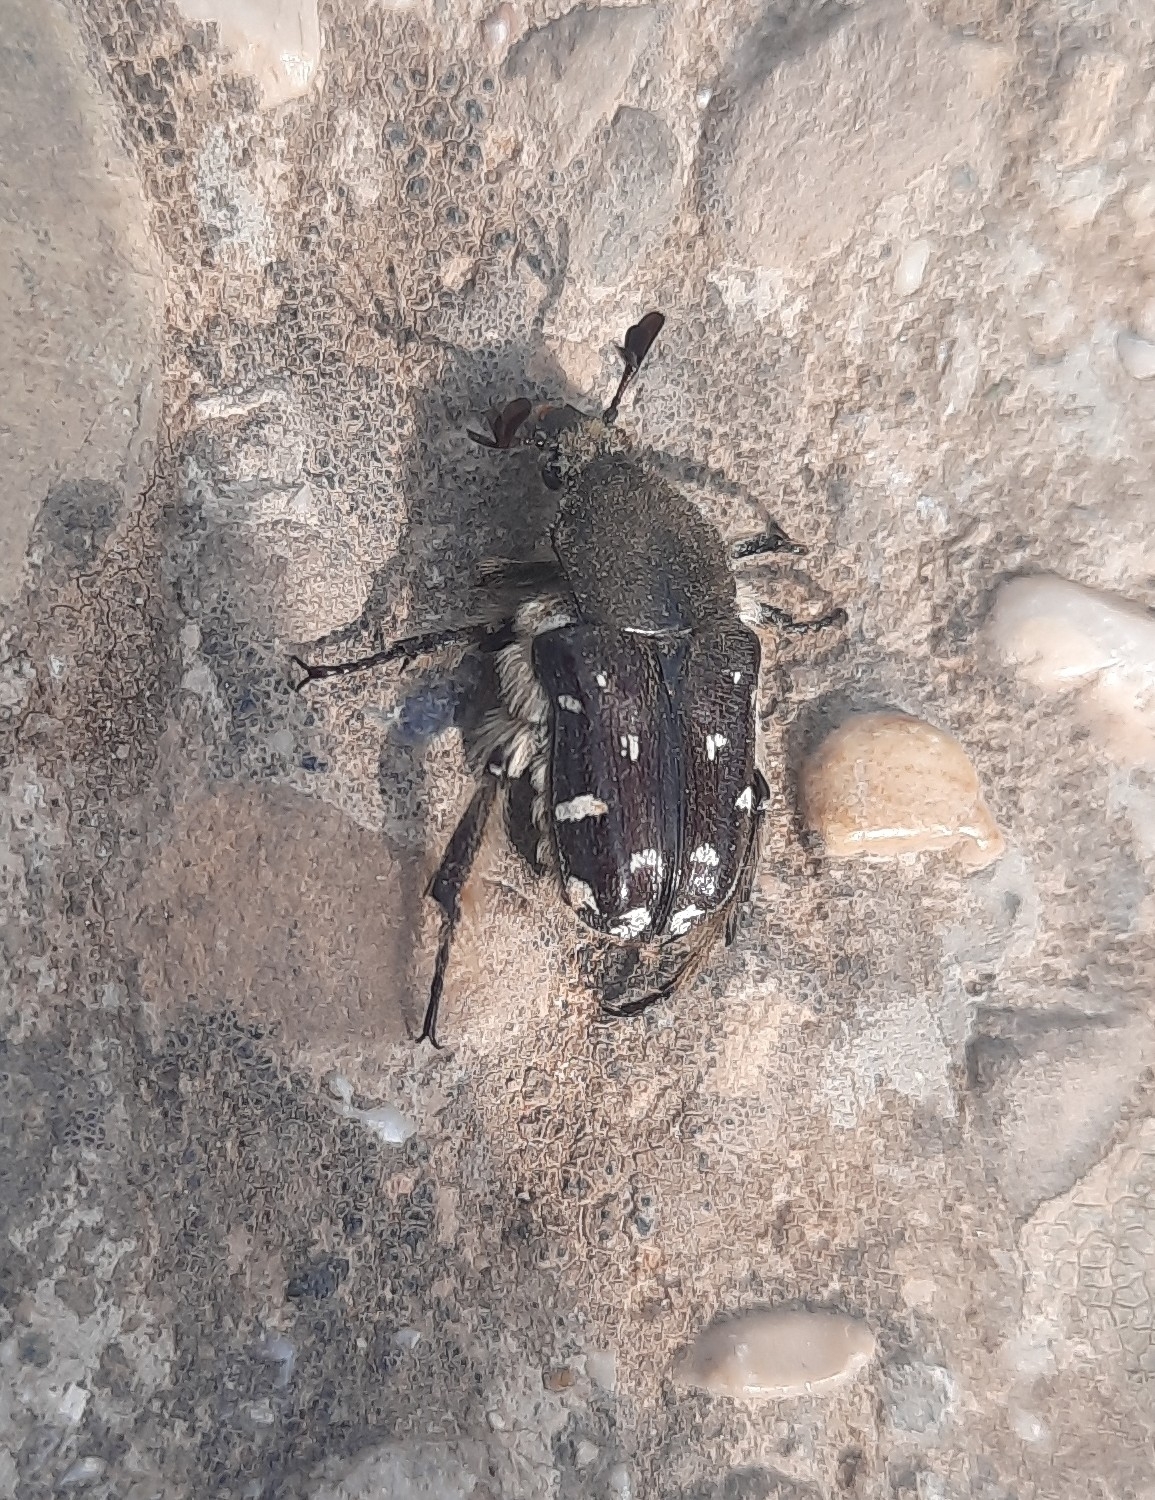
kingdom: Animalia
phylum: Arthropoda
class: Insecta
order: Coleoptera
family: Scarabaeidae
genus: Heterocnemis
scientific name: Heterocnemis graeca
